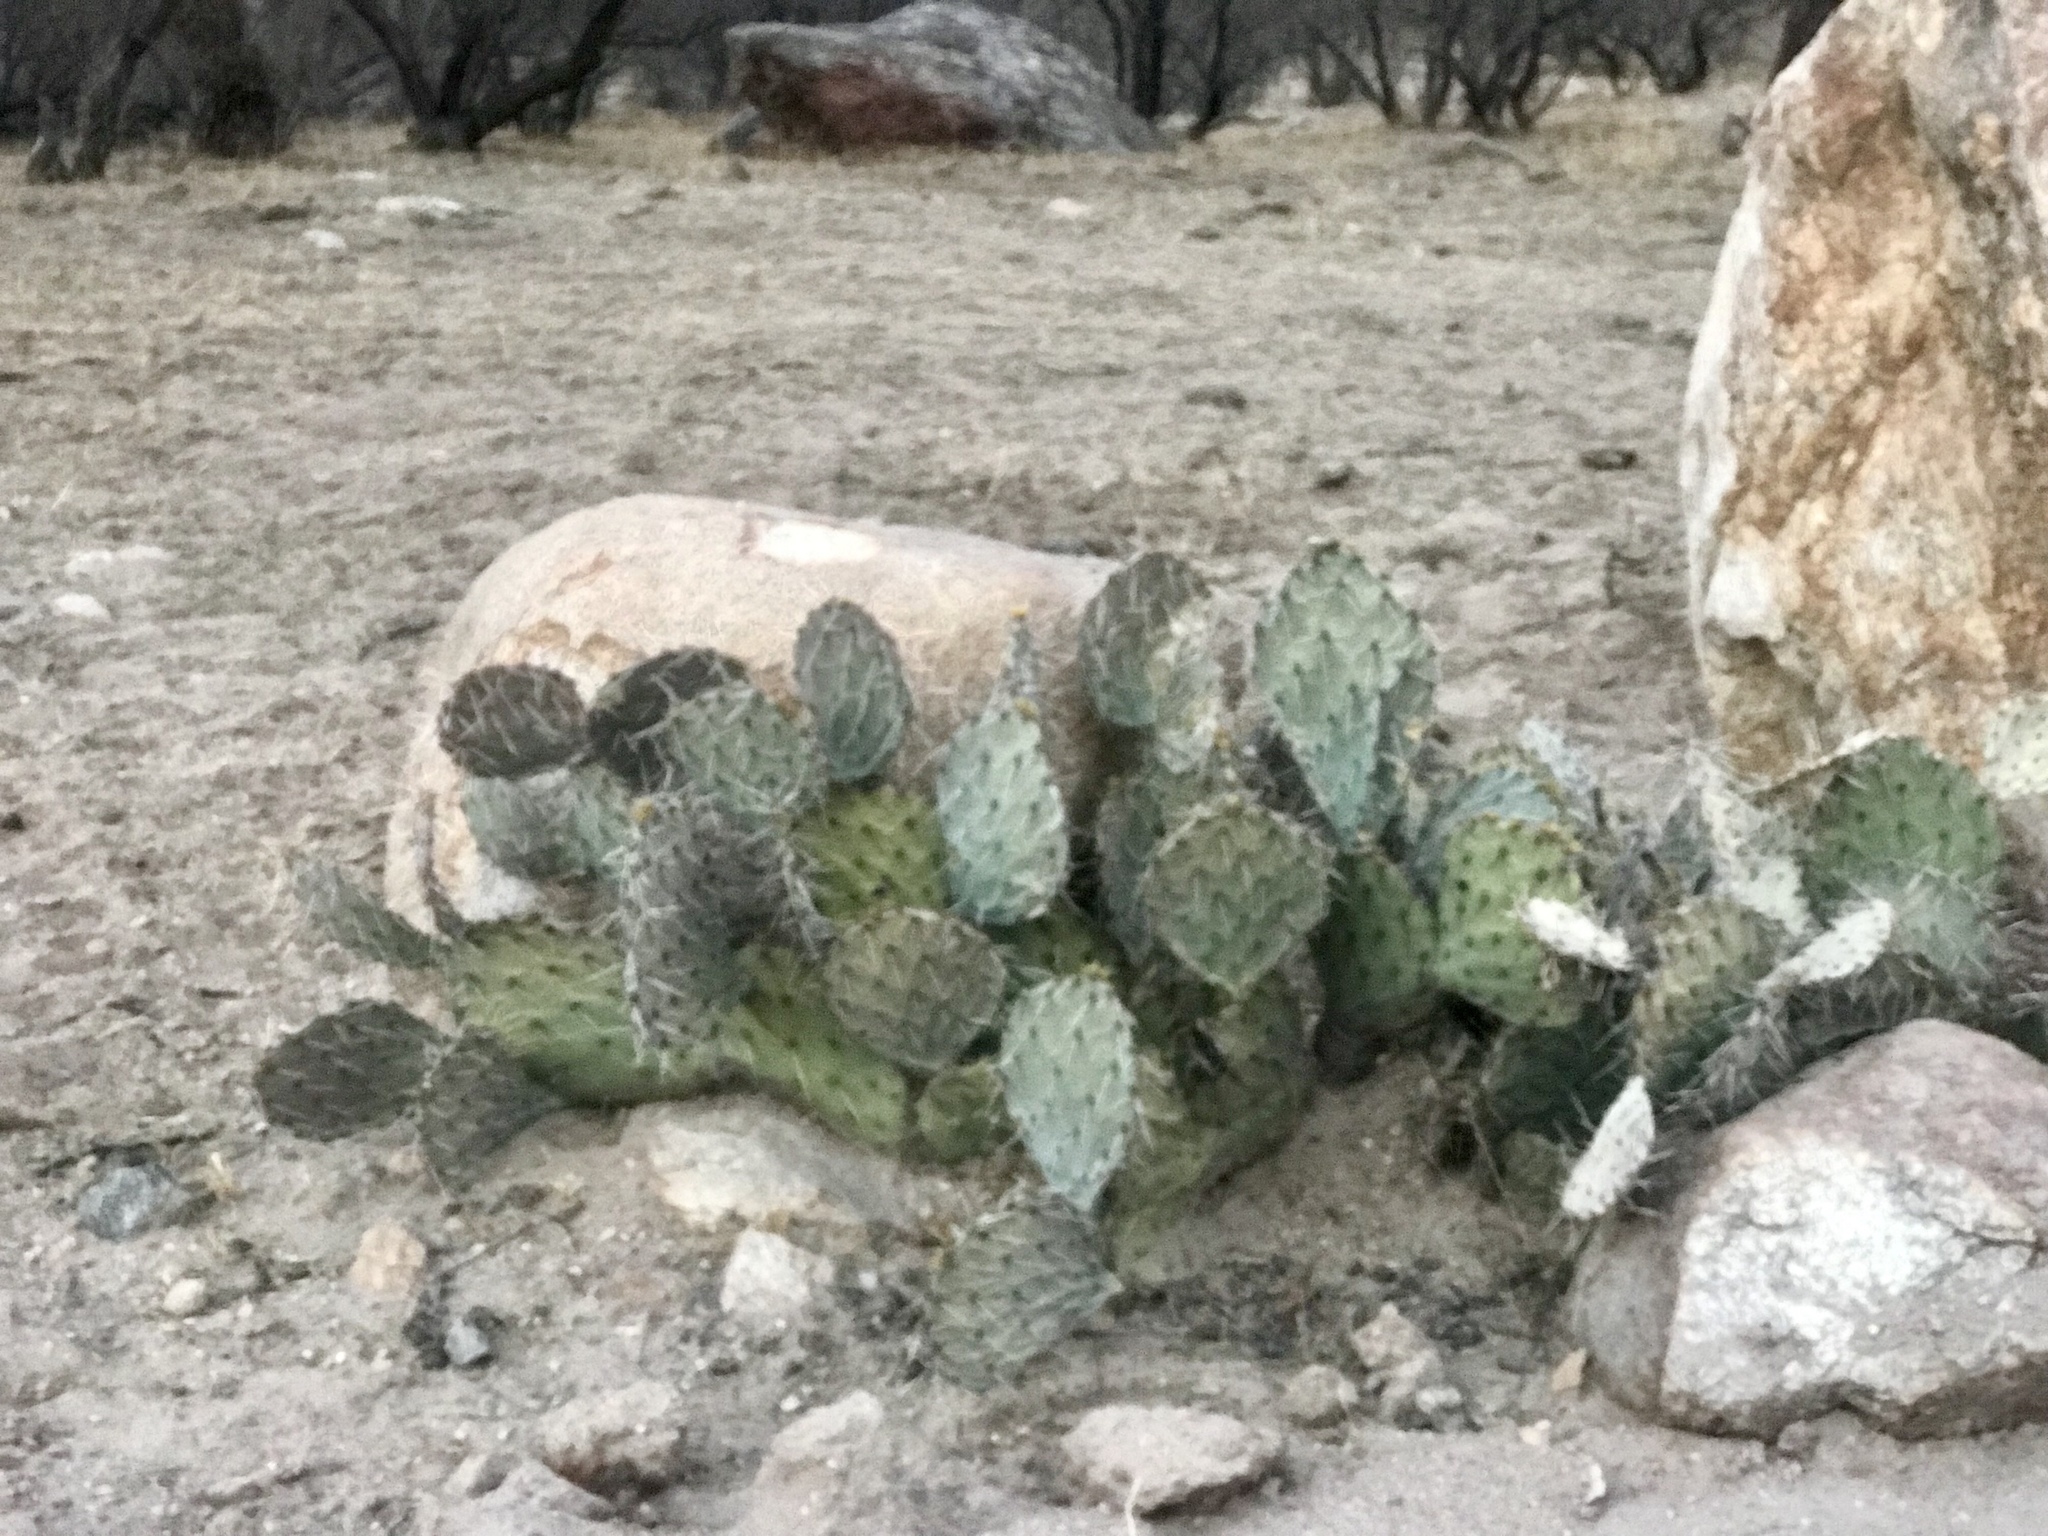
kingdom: Plantae
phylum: Tracheophyta
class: Magnoliopsida
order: Caryophyllales
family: Cactaceae
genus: Opuntia
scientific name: Opuntia engelmannii
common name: Cactus-apple
